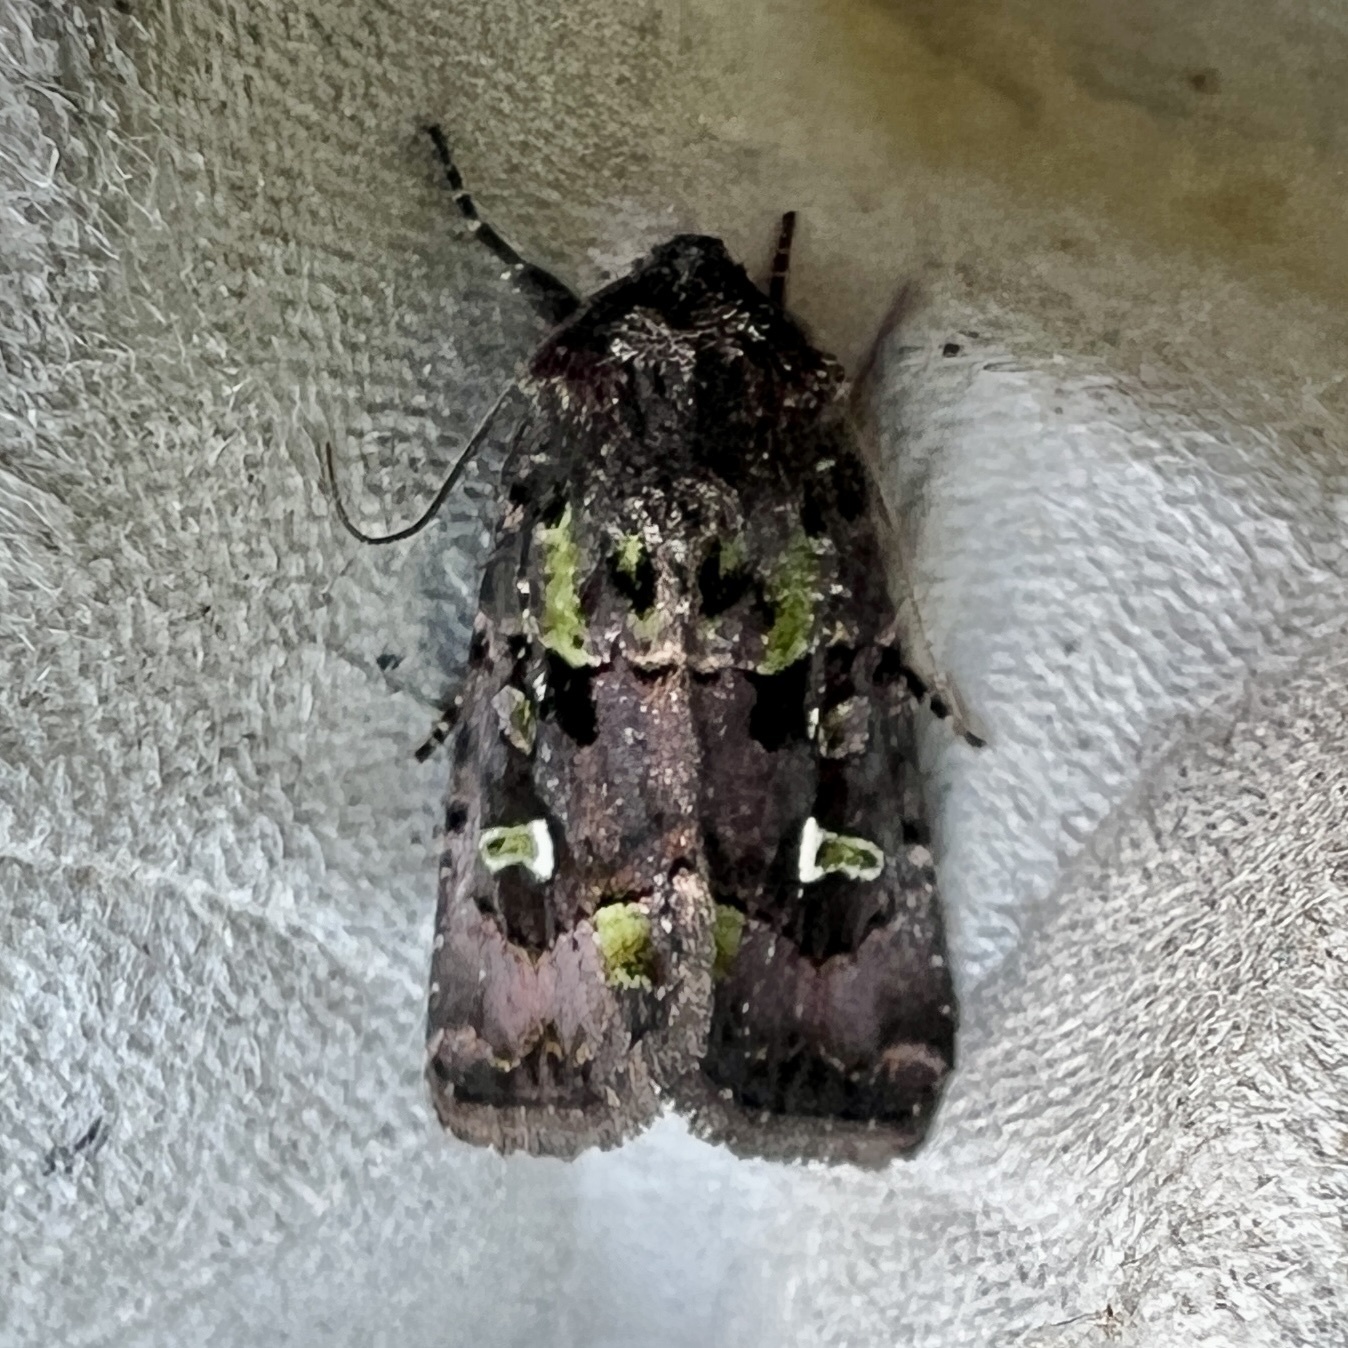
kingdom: Animalia
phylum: Arthropoda
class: Insecta
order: Lepidoptera
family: Noctuidae
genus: Lacinipolia
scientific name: Lacinipolia renigera
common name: Kidney-spotted minor
